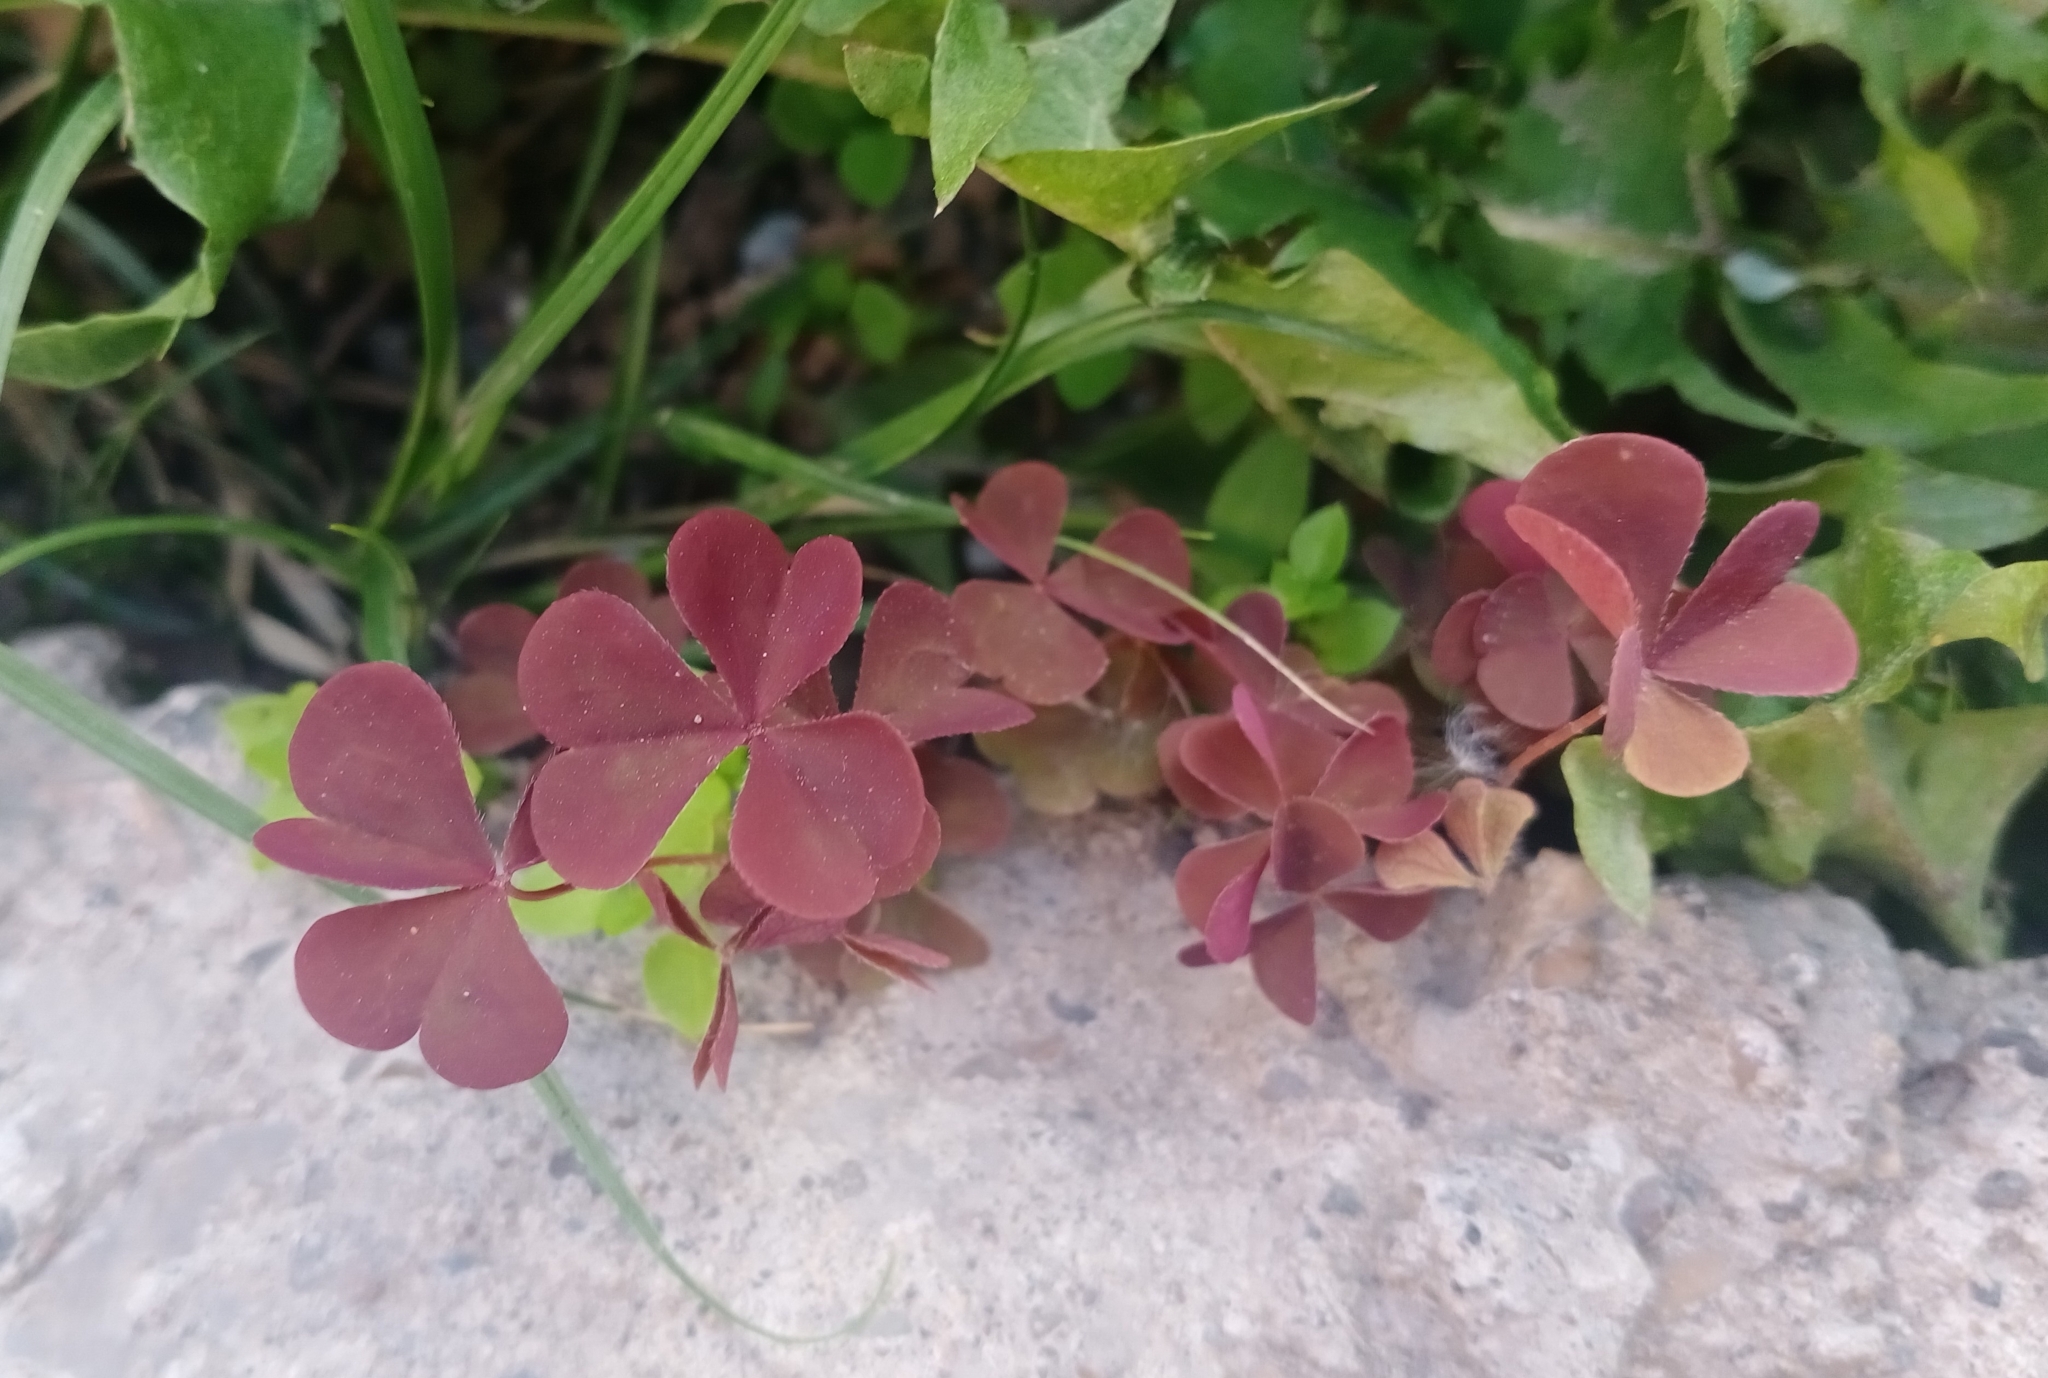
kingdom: Plantae
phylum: Tracheophyta
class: Magnoliopsida
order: Oxalidales
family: Oxalidaceae
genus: Oxalis
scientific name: Oxalis stricta
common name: Upright yellow-sorrel
